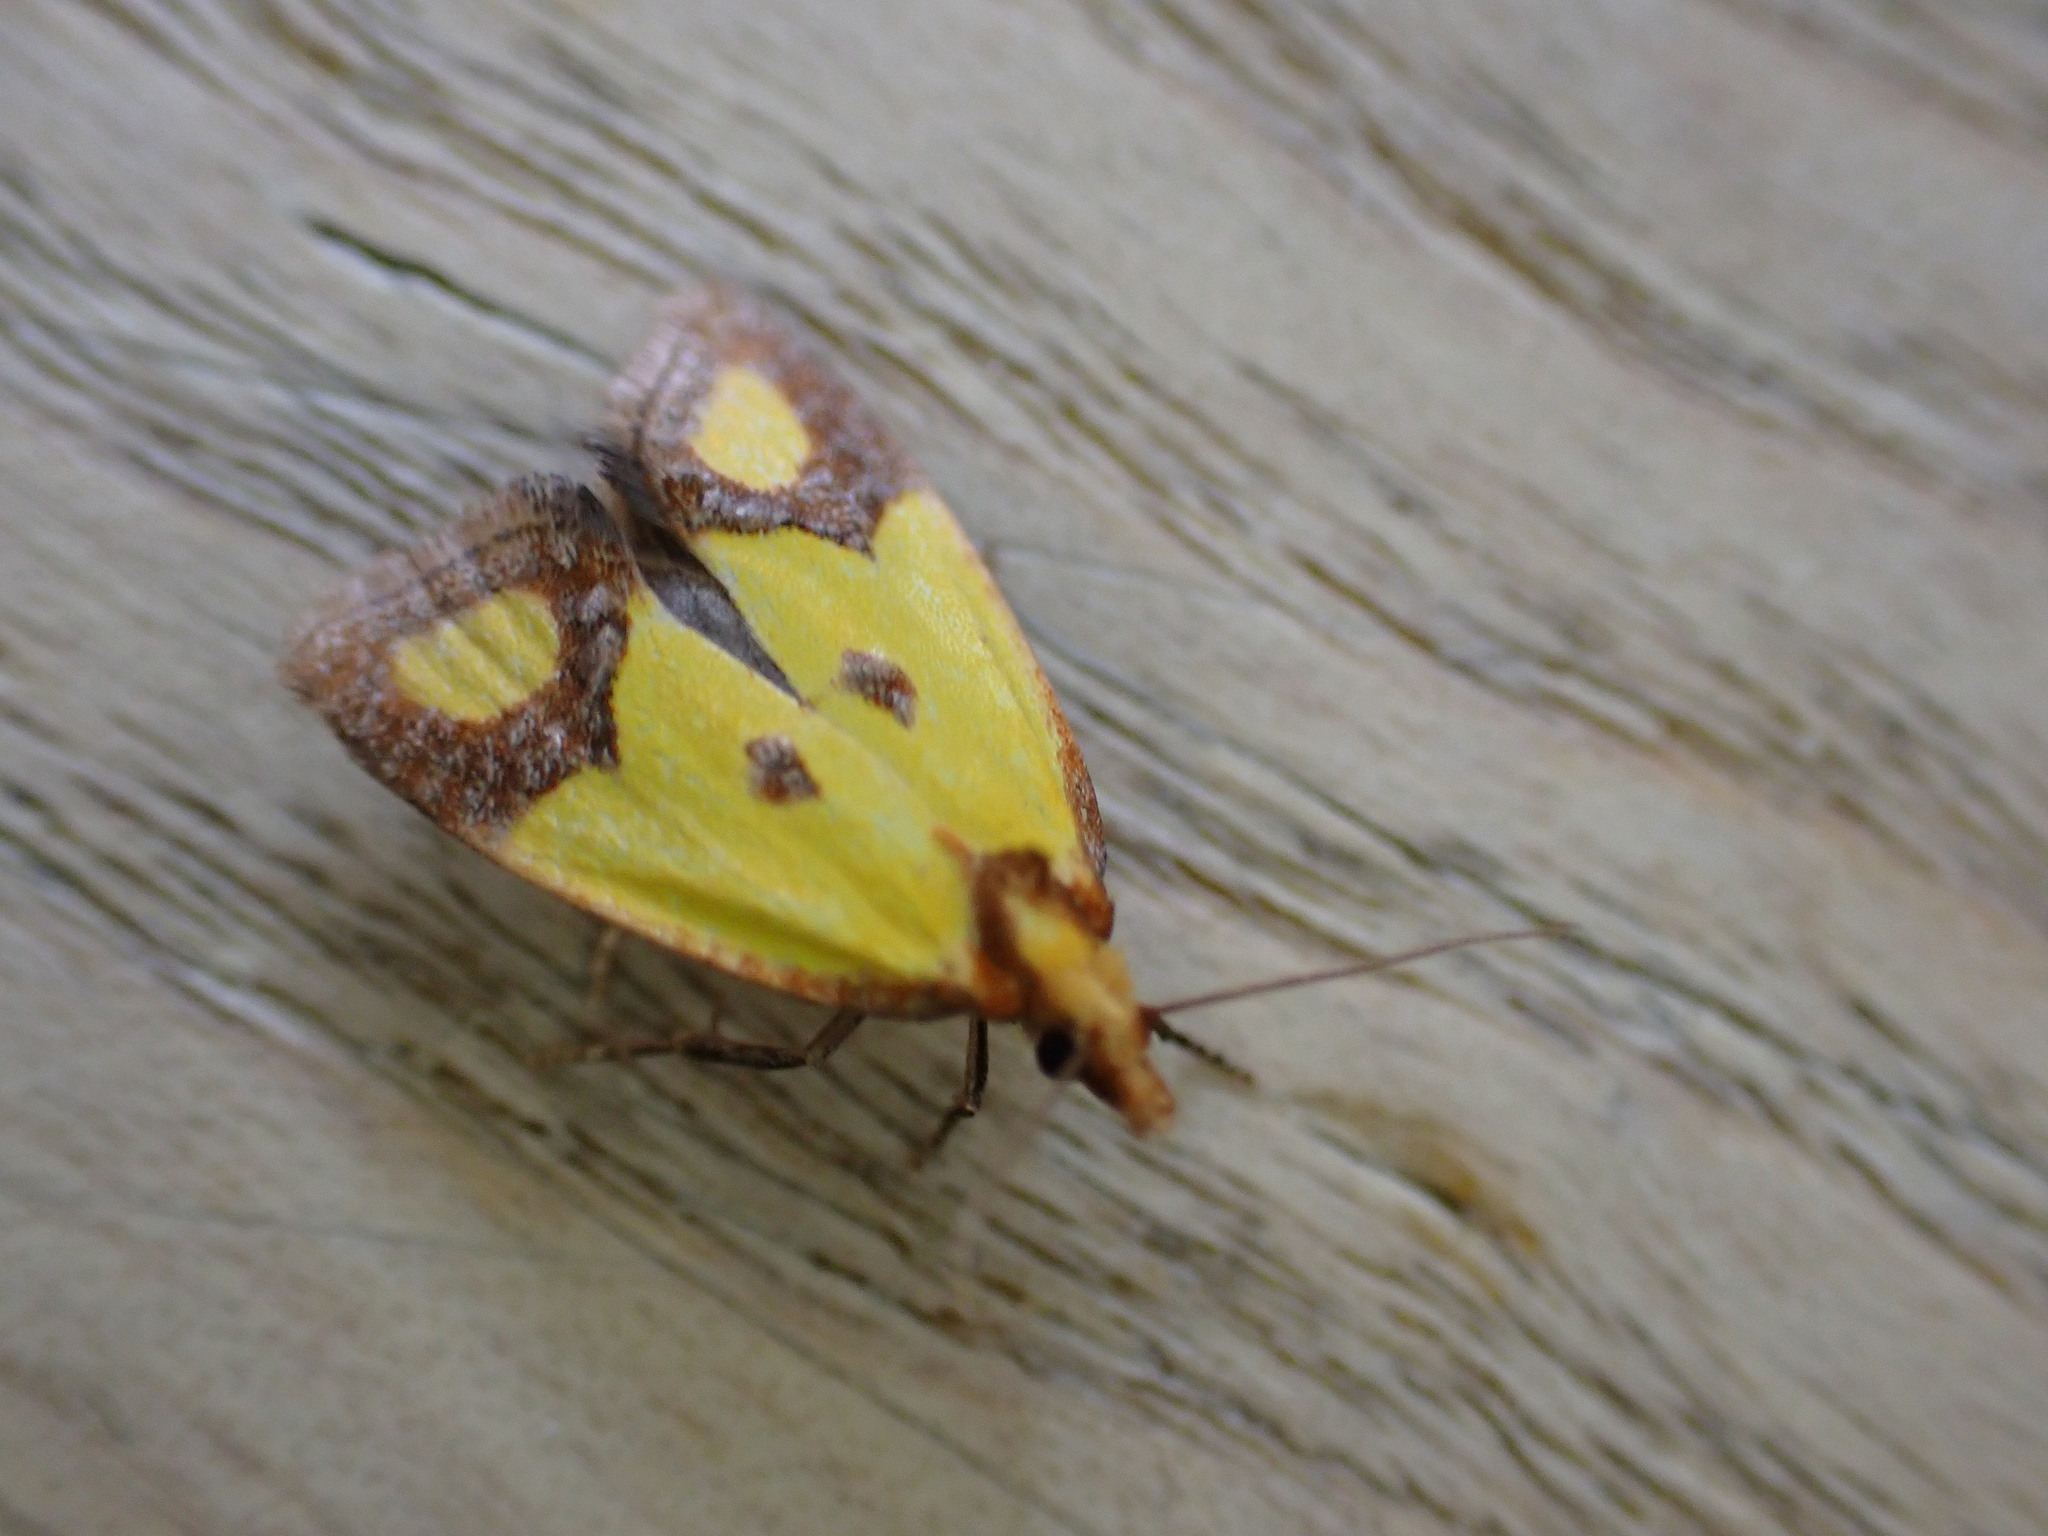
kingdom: Animalia
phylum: Arthropoda
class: Insecta
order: Lepidoptera
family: Tortricidae
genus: Agapeta
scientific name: Agapeta zoegana
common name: Sulfur knapweed root moth
